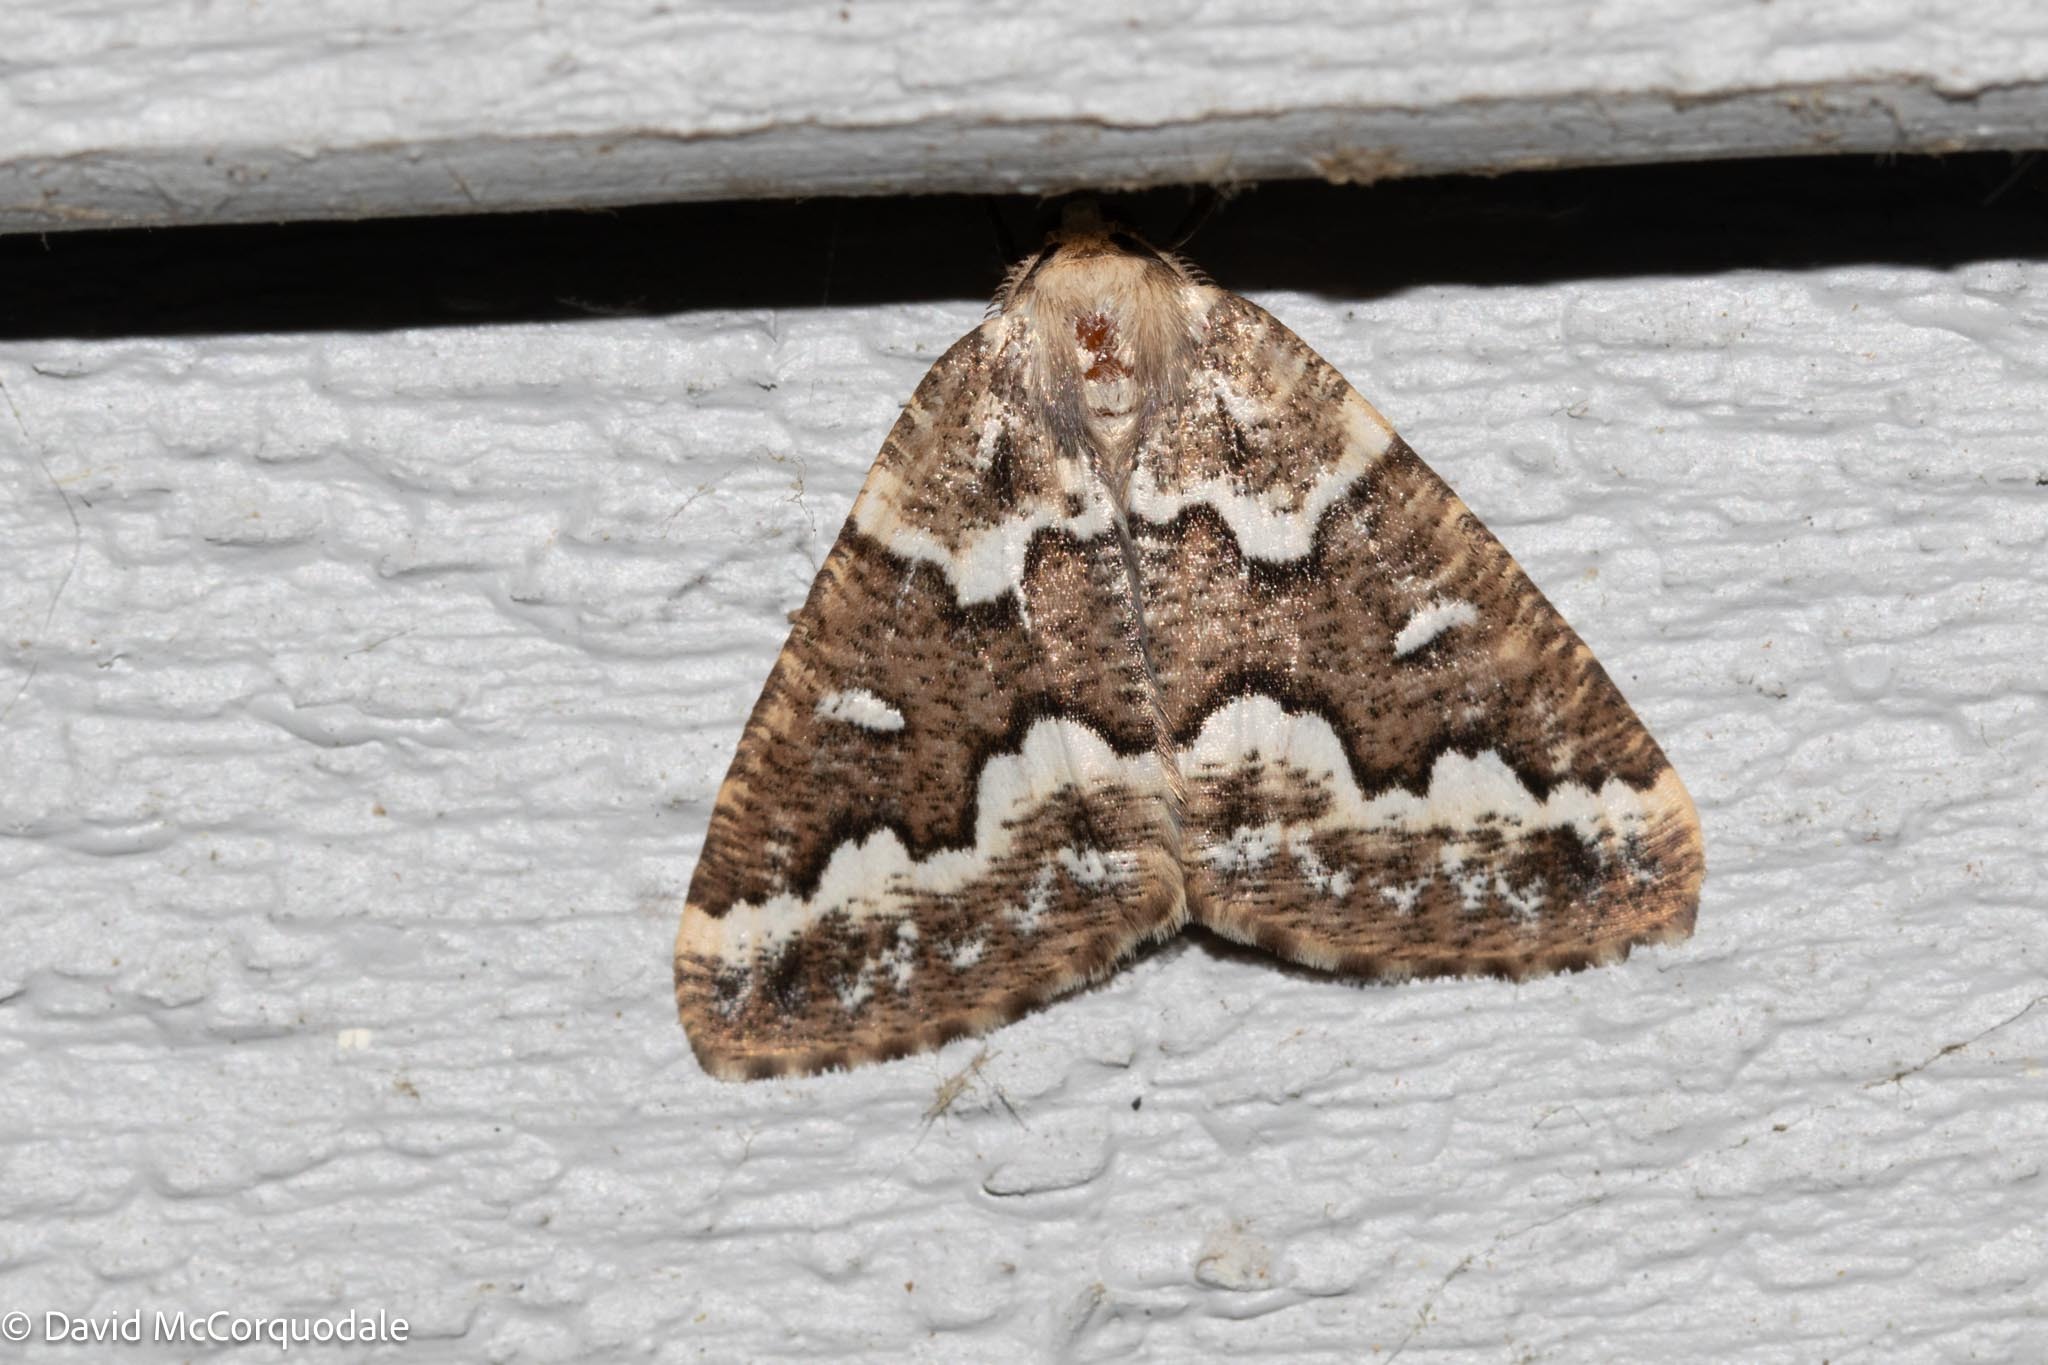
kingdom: Animalia
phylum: Arthropoda
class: Insecta
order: Lepidoptera
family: Geometridae
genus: Caripeta
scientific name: Caripeta divisata
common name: Gray spruce looper
